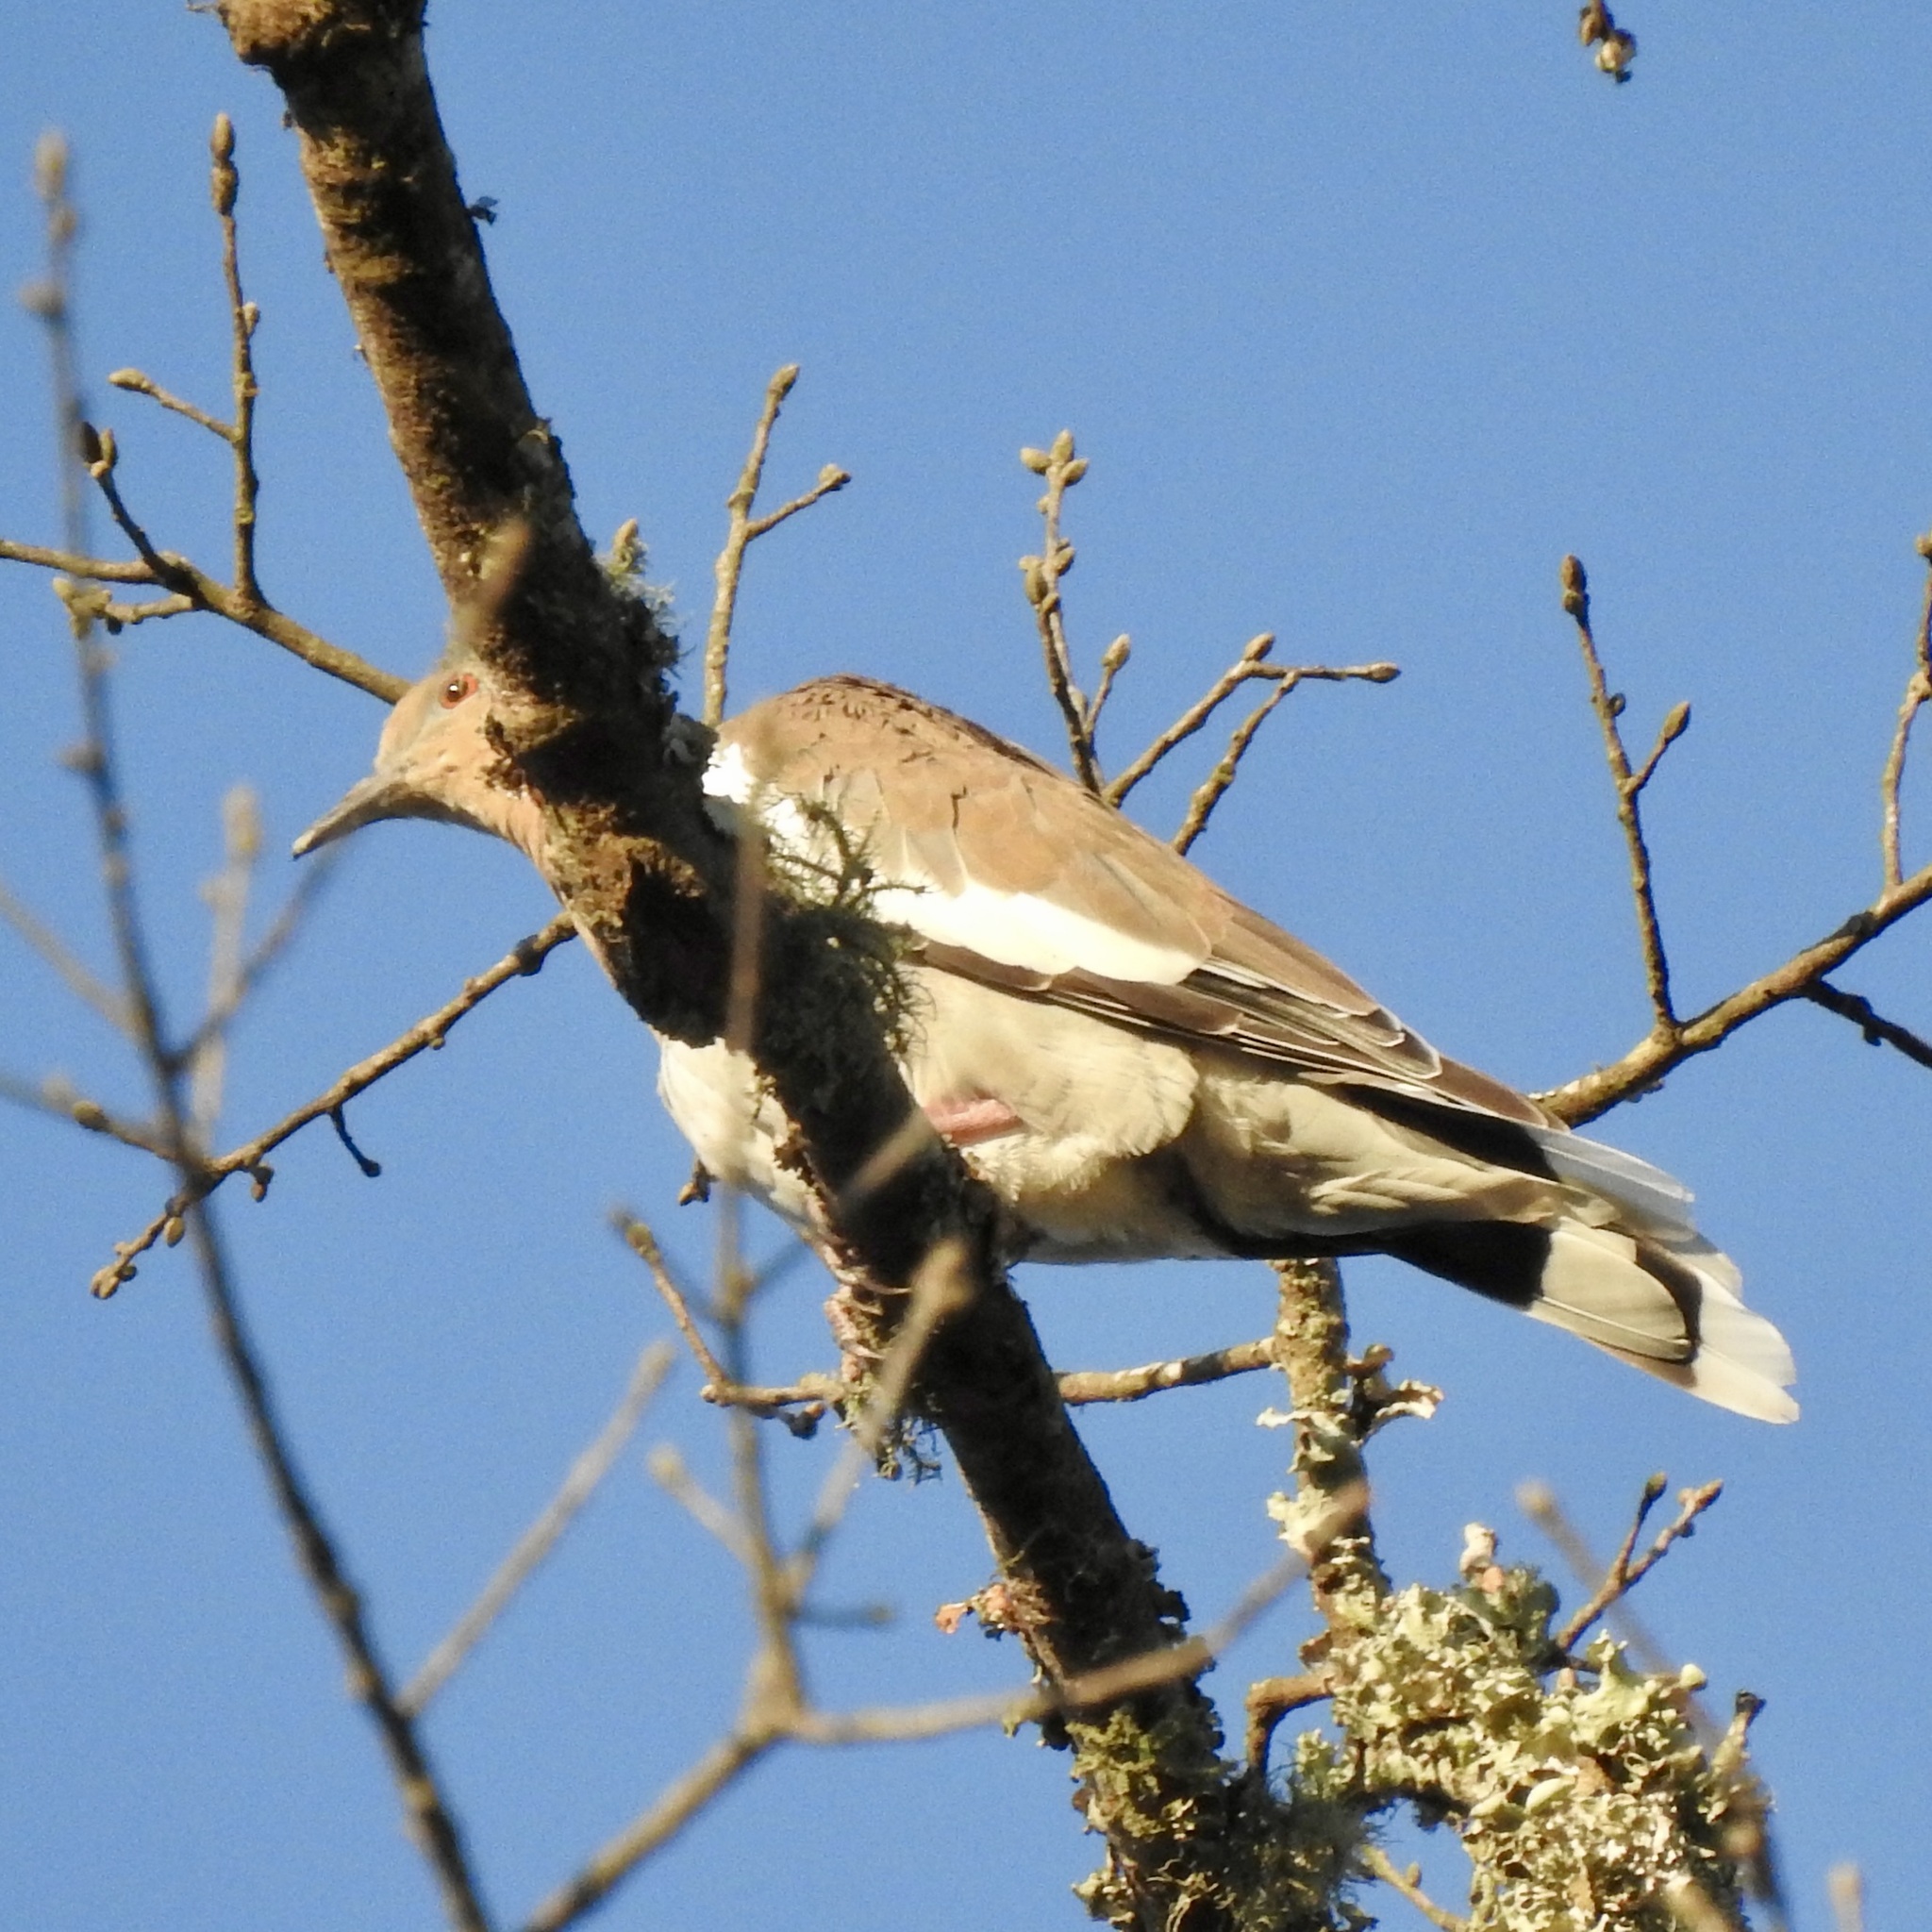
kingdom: Animalia
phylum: Chordata
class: Aves
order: Columbiformes
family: Columbidae
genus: Zenaida
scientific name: Zenaida asiatica
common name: White-winged dove
